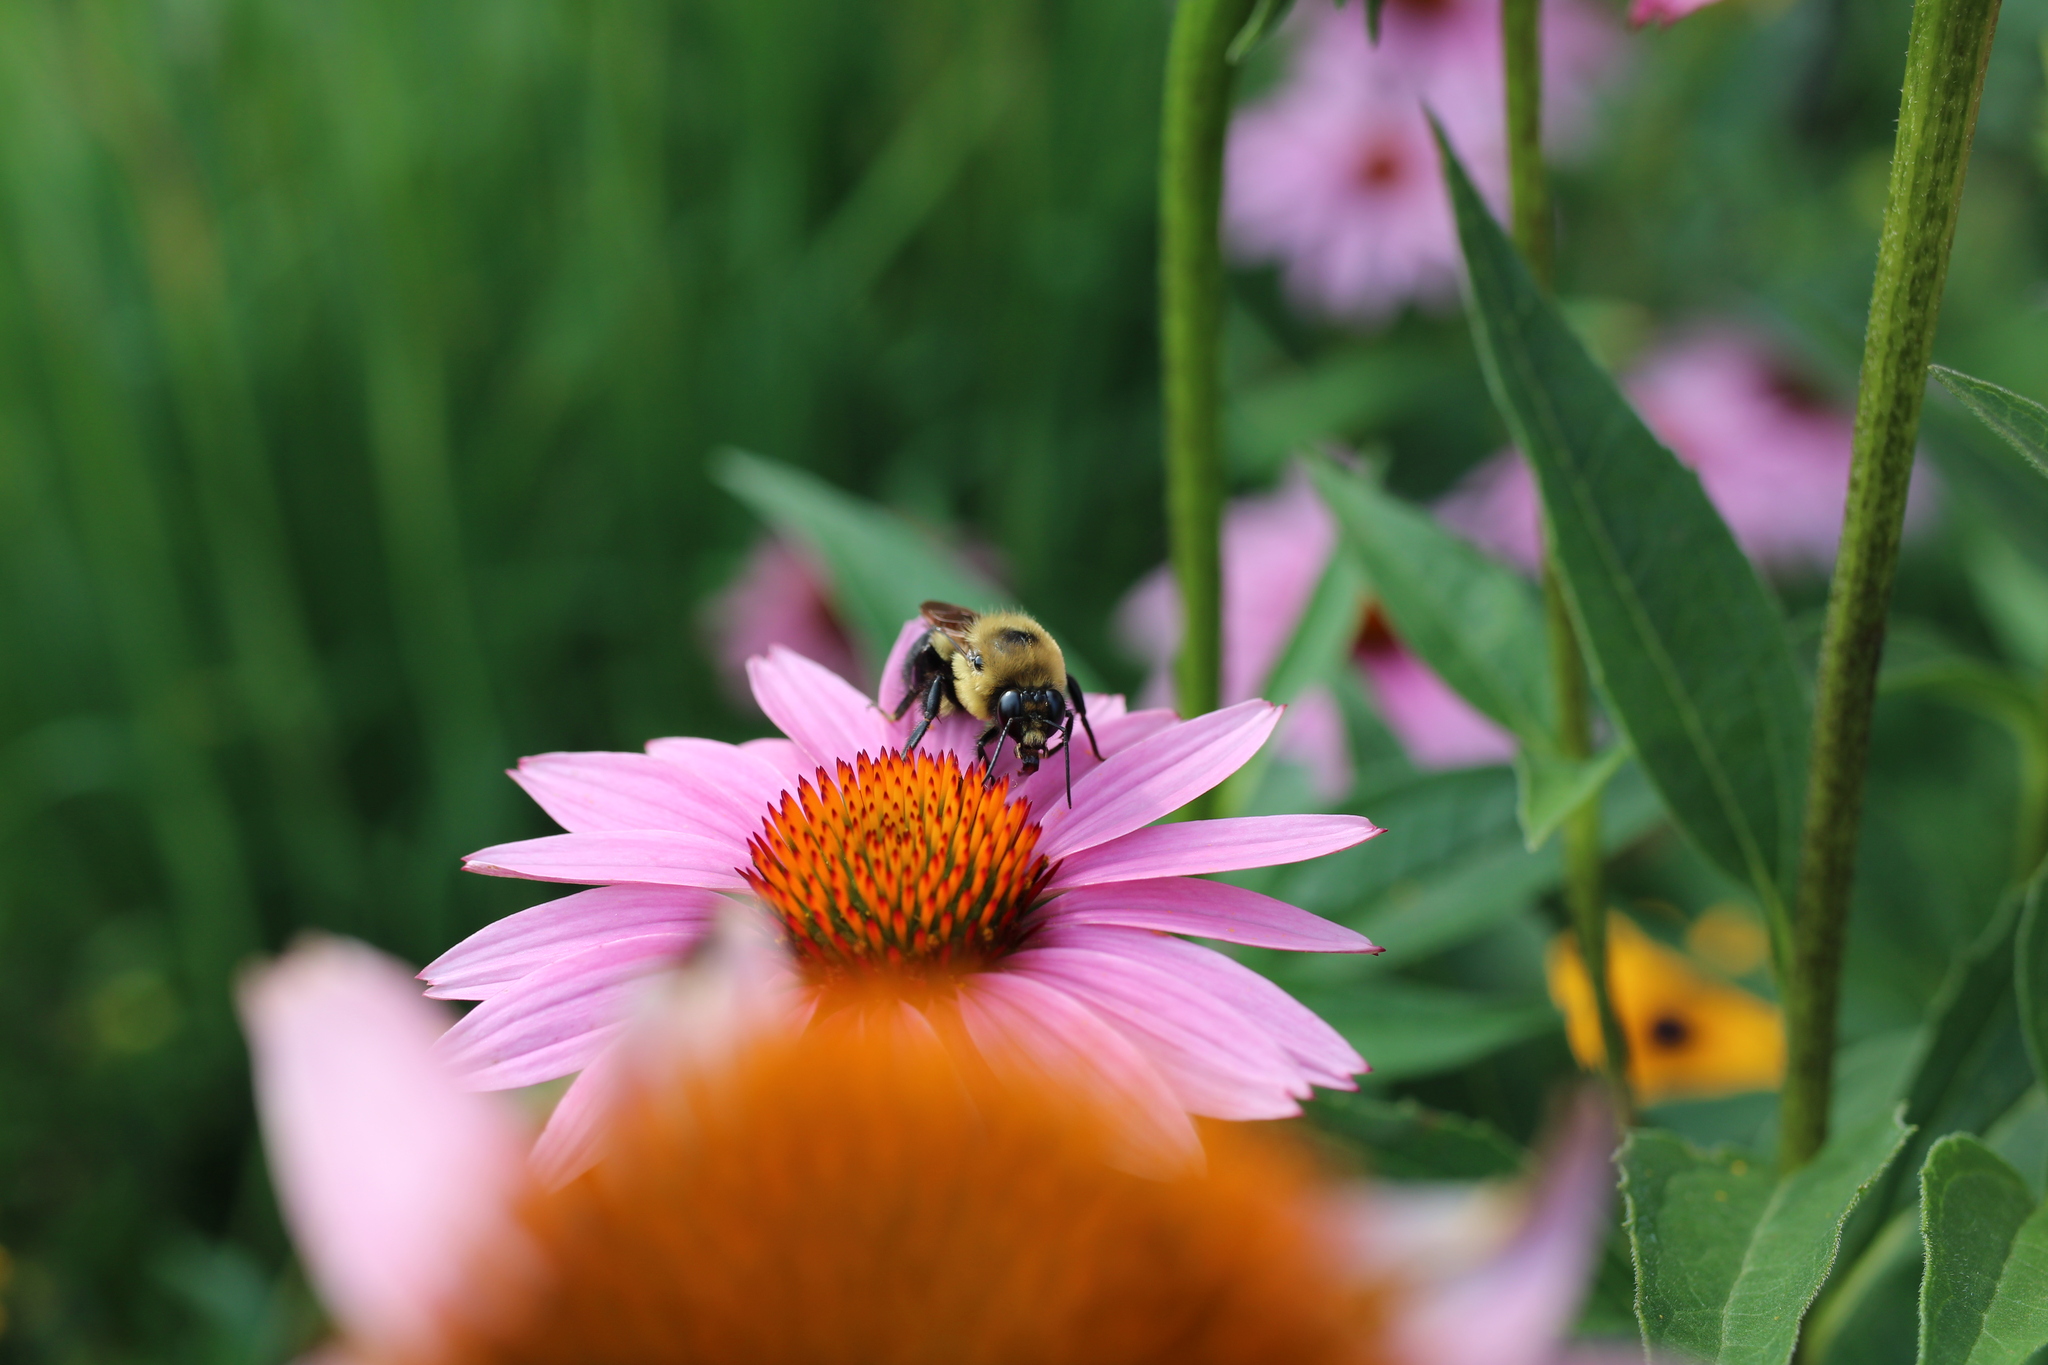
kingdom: Animalia
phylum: Arthropoda
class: Insecta
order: Hymenoptera
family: Apidae
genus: Bombus
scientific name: Bombus griseocollis
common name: Brown-belted bumble bee
